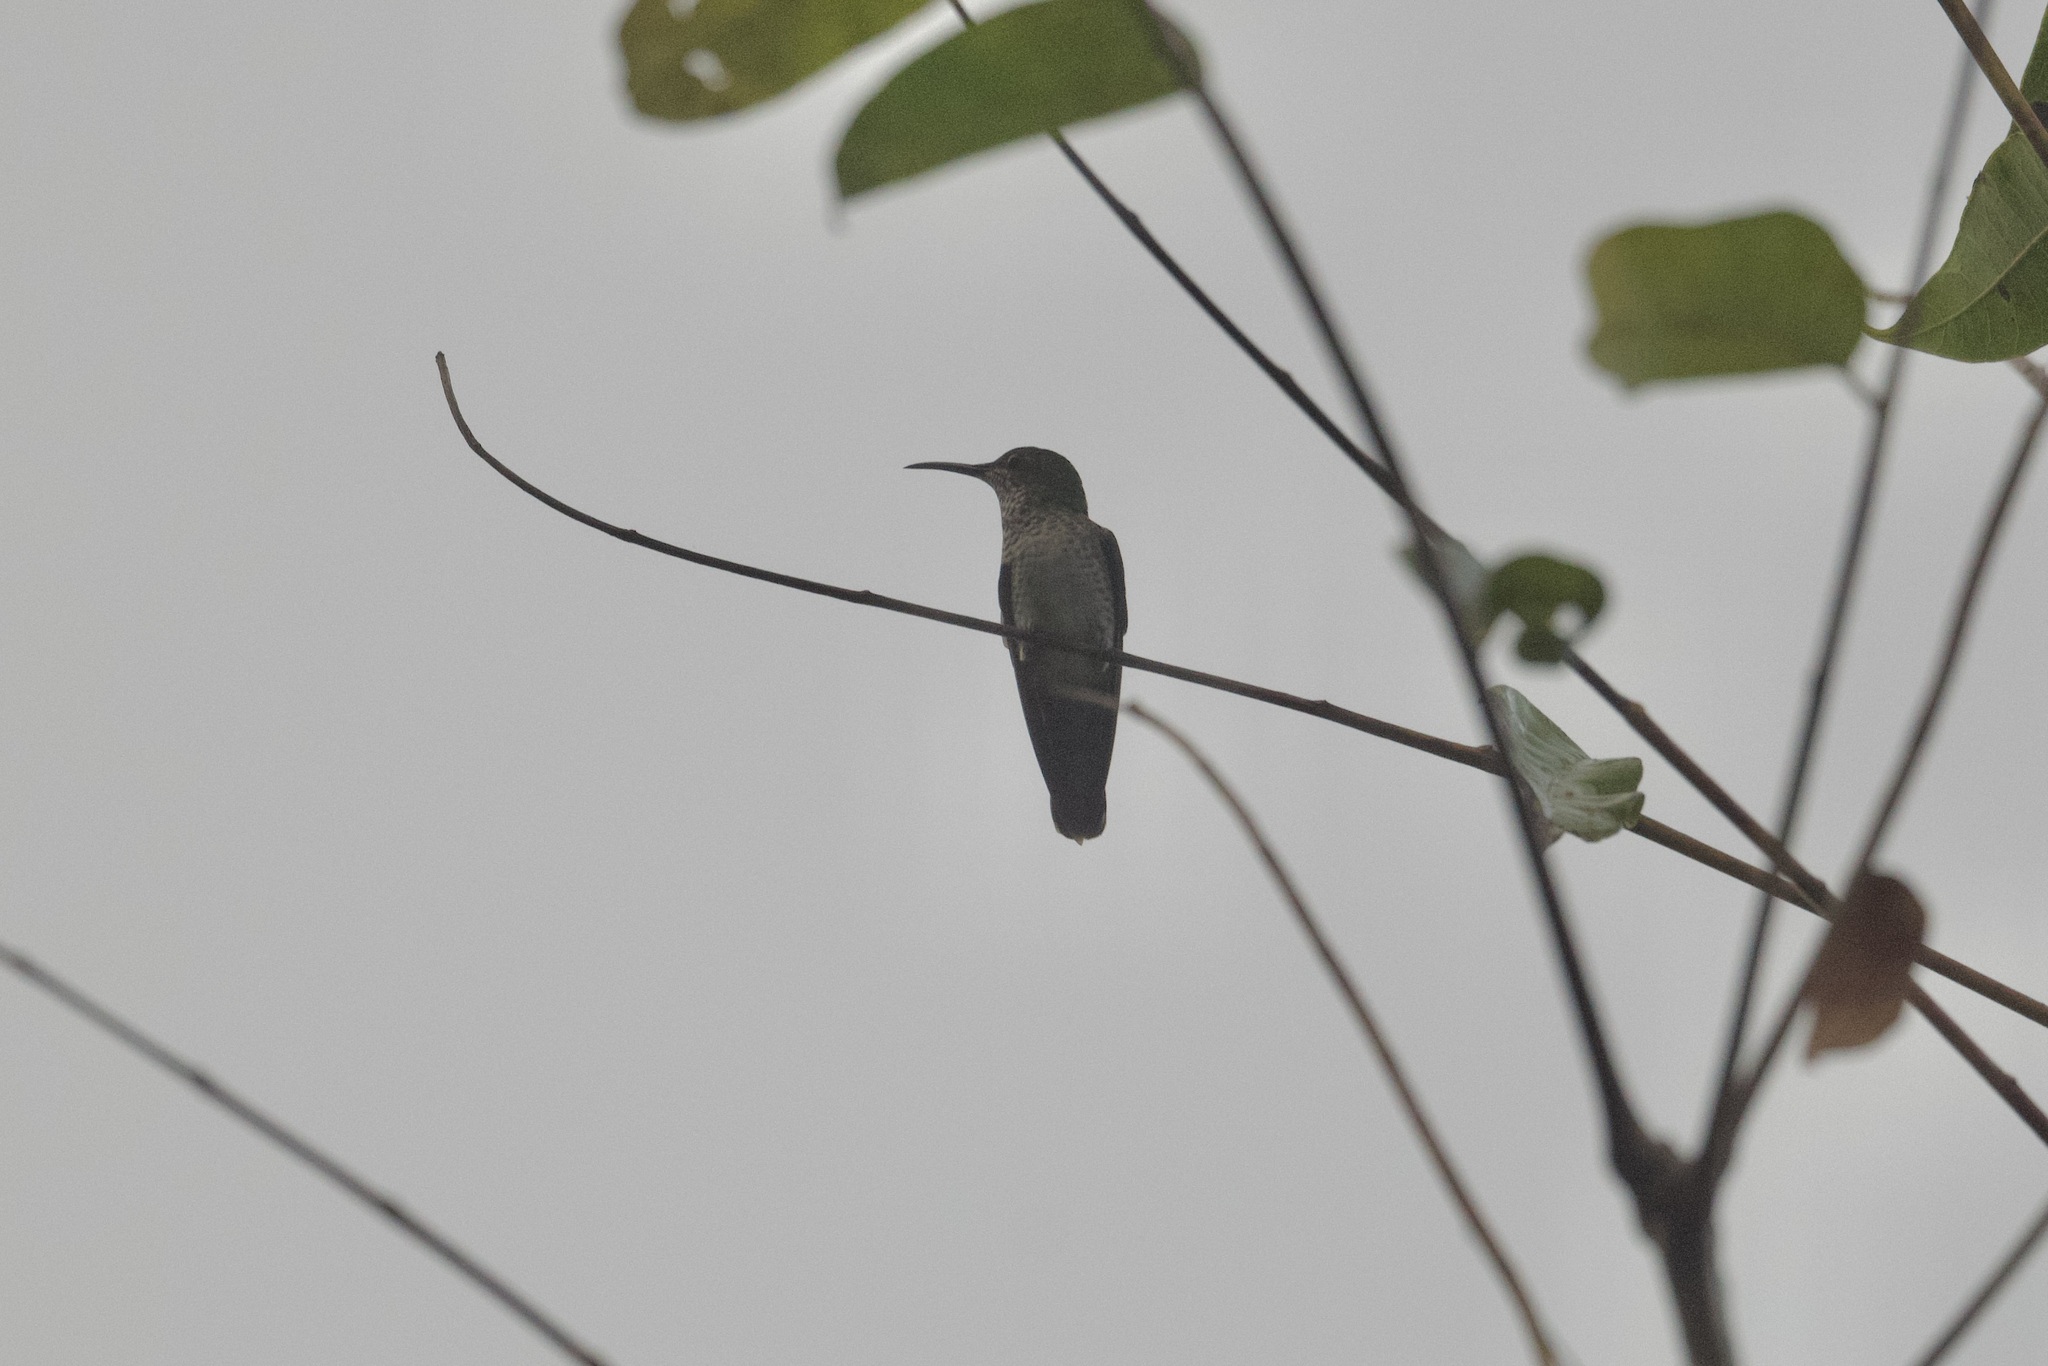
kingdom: Animalia
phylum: Chordata
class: Aves
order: Apodiformes
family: Trochilidae
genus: Florisuga
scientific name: Florisuga mellivora
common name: White-necked jacobin
